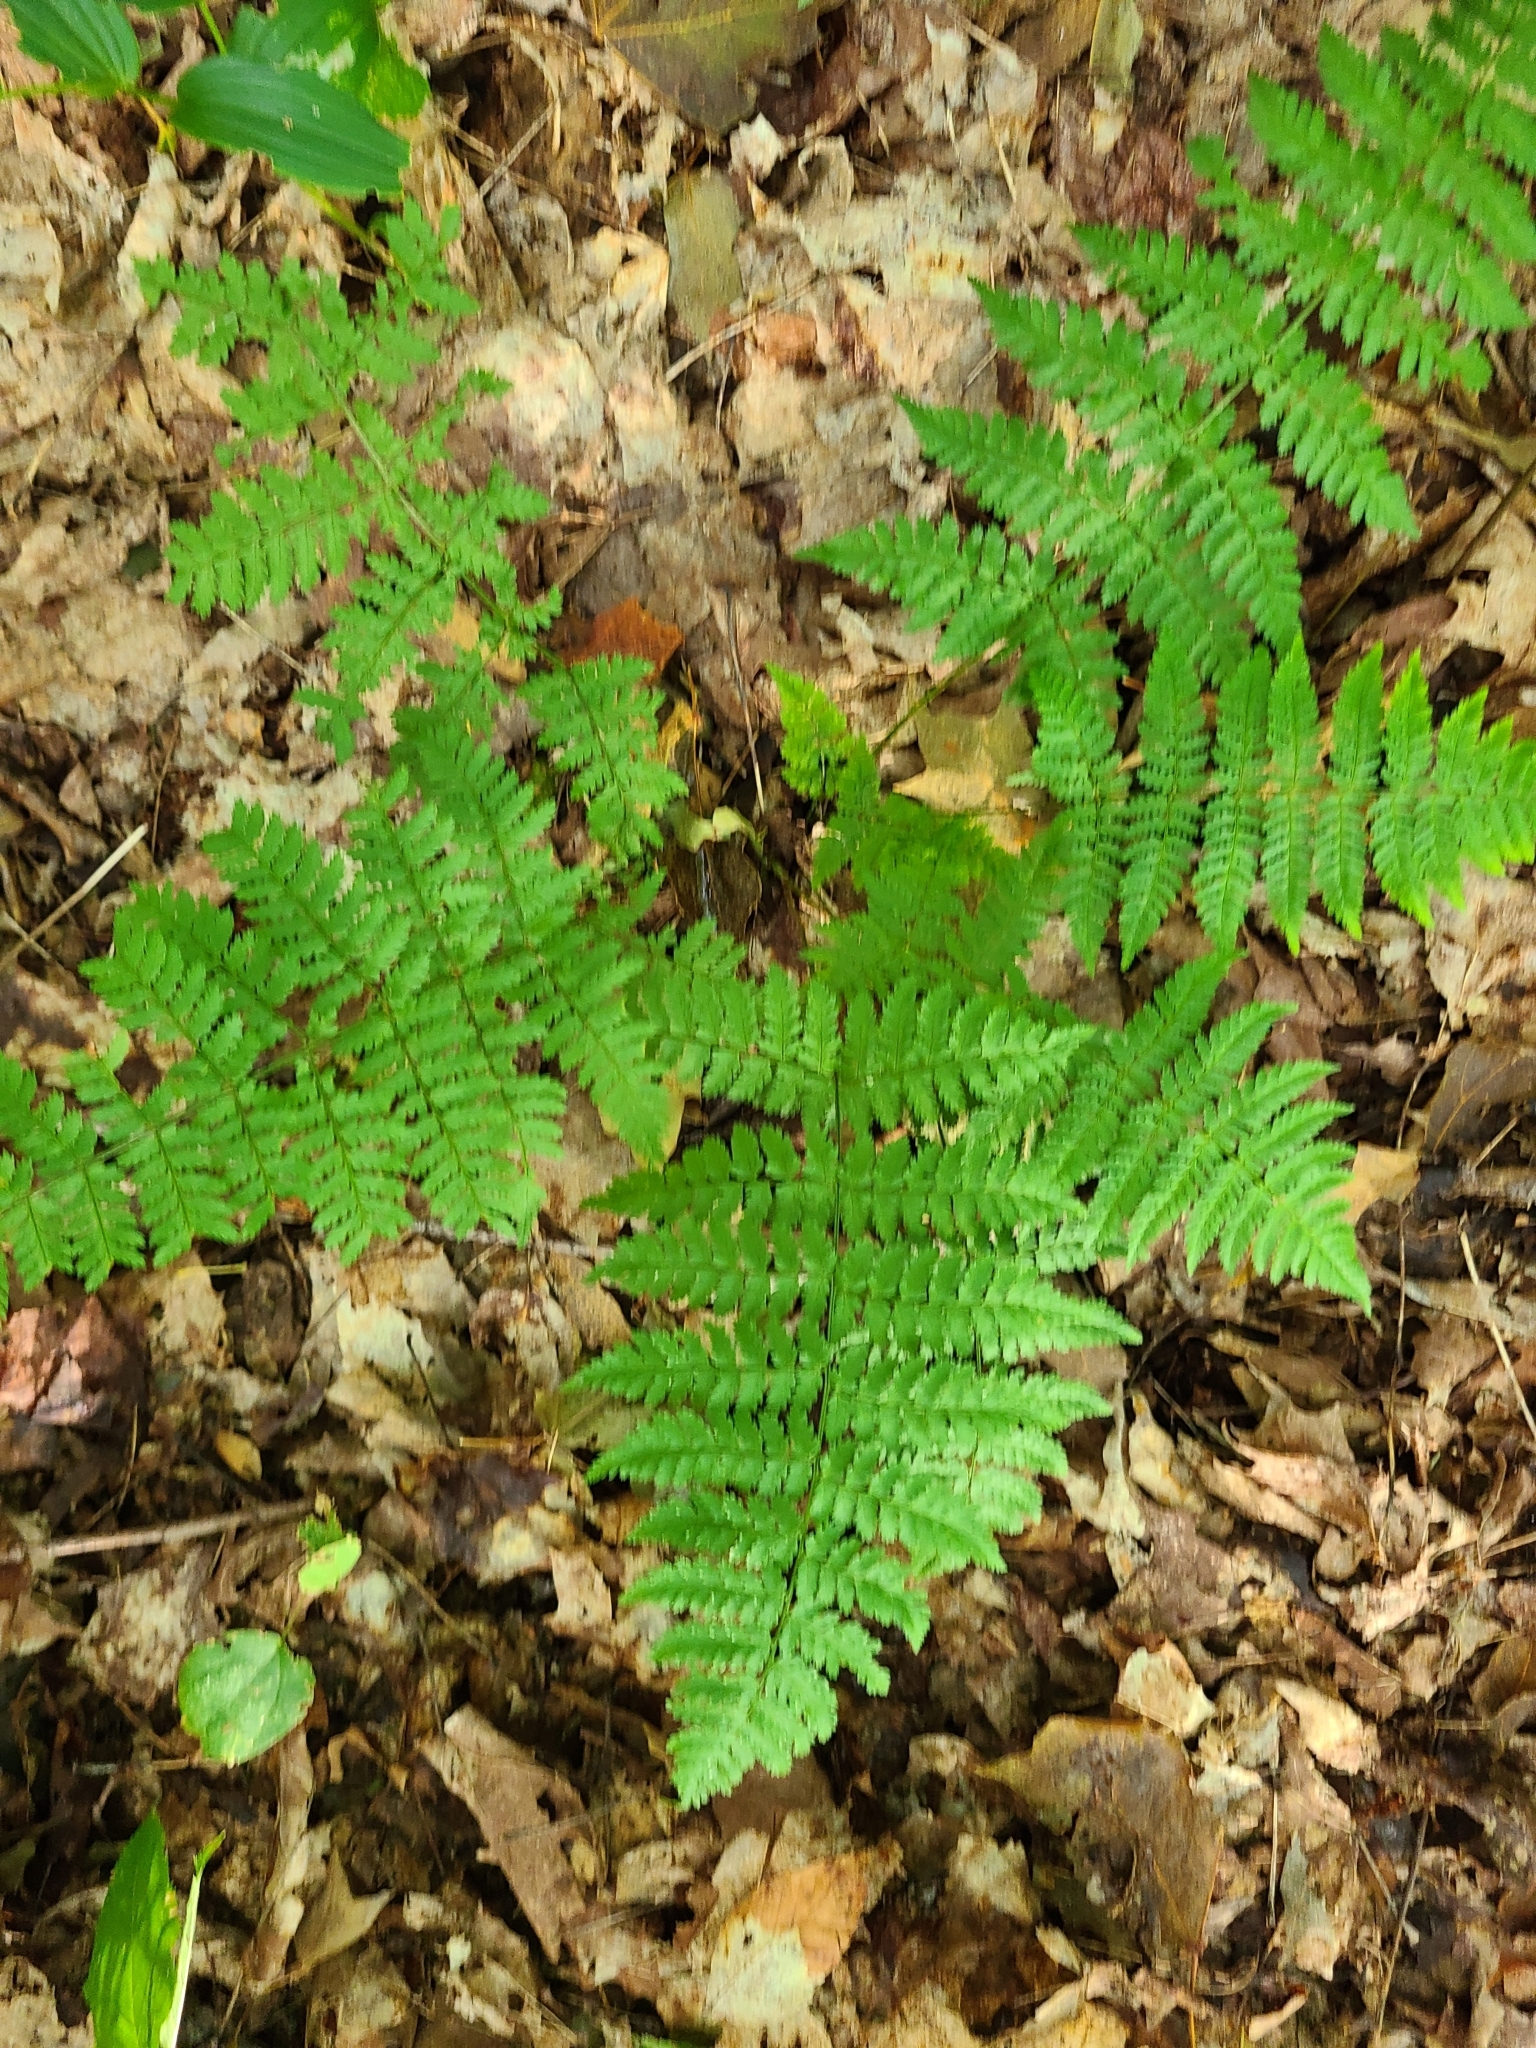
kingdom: Plantae
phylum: Tracheophyta
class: Polypodiopsida
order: Polypodiales
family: Dryopteridaceae
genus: Dryopteris
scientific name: Dryopteris intermedia
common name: Evergreen wood fern
